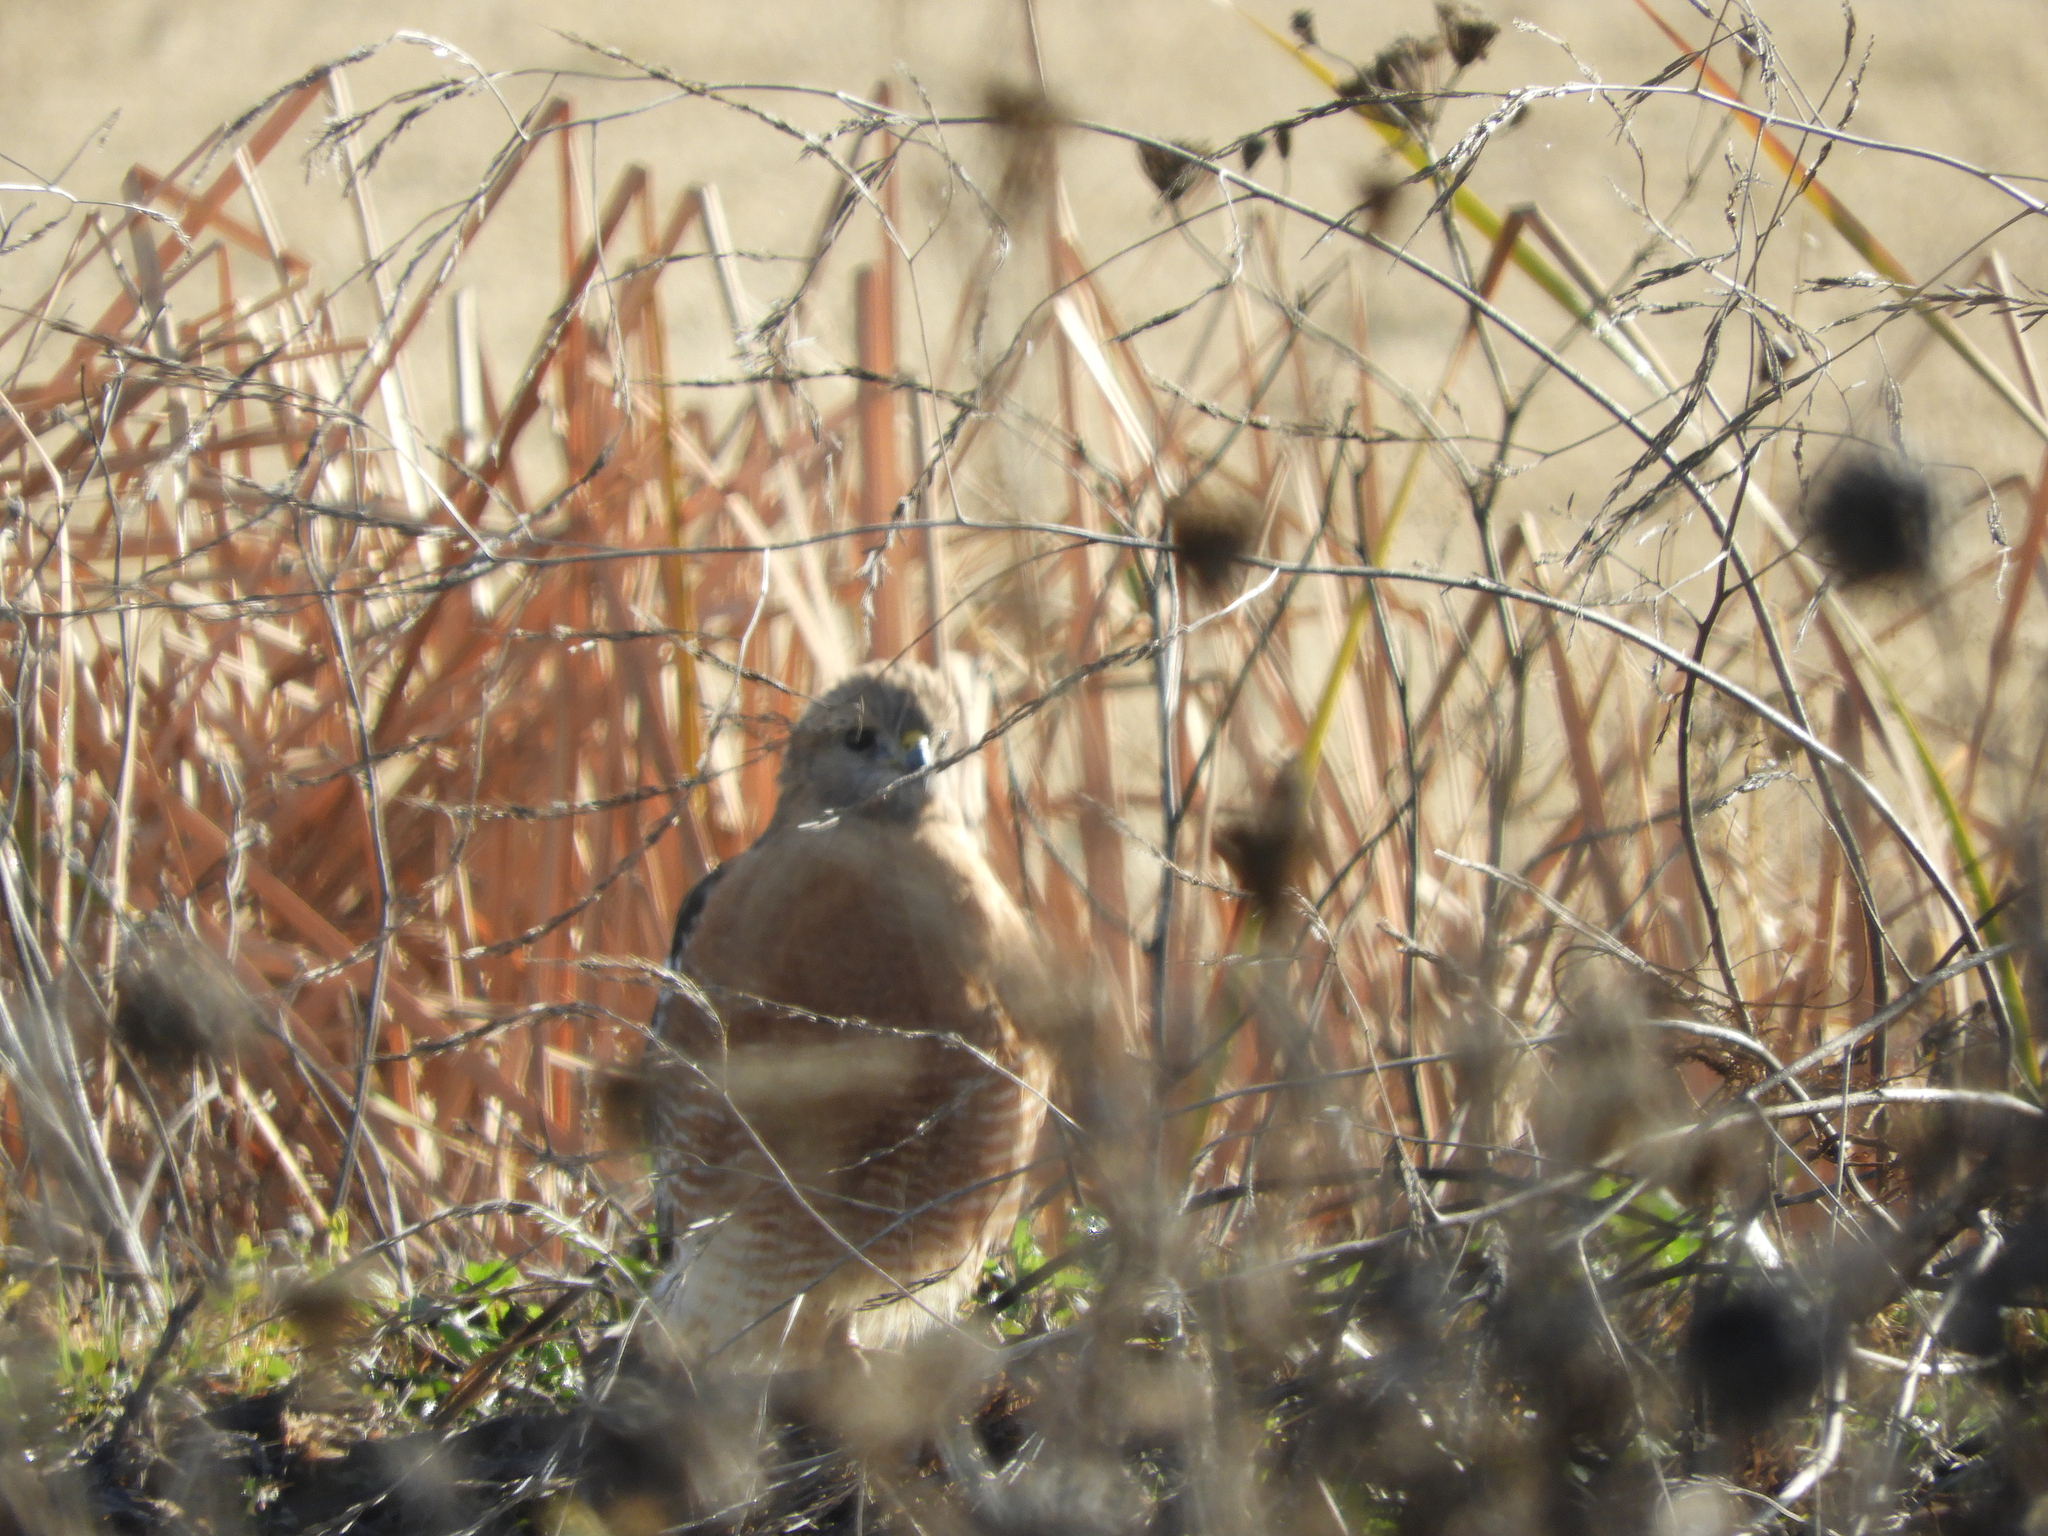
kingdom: Animalia
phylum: Chordata
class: Aves
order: Accipitriformes
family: Accipitridae
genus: Buteo
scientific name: Buteo lineatus
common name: Red-shouldered hawk
